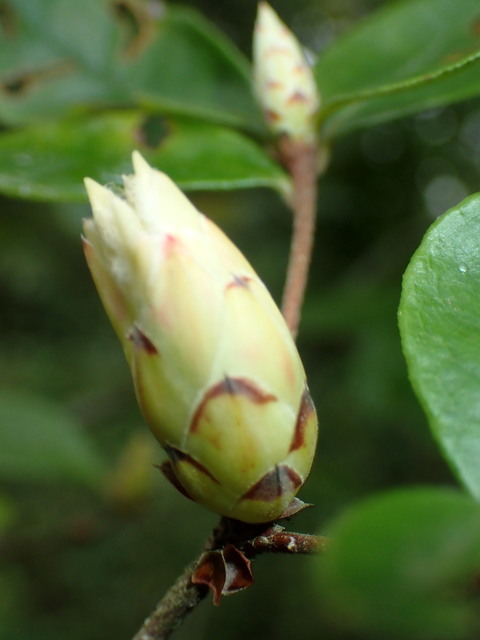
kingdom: Plantae
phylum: Tracheophyta
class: Magnoliopsida
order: Ericales
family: Ericaceae
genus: Rhododendron
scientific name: Rhododendron serrulatum
